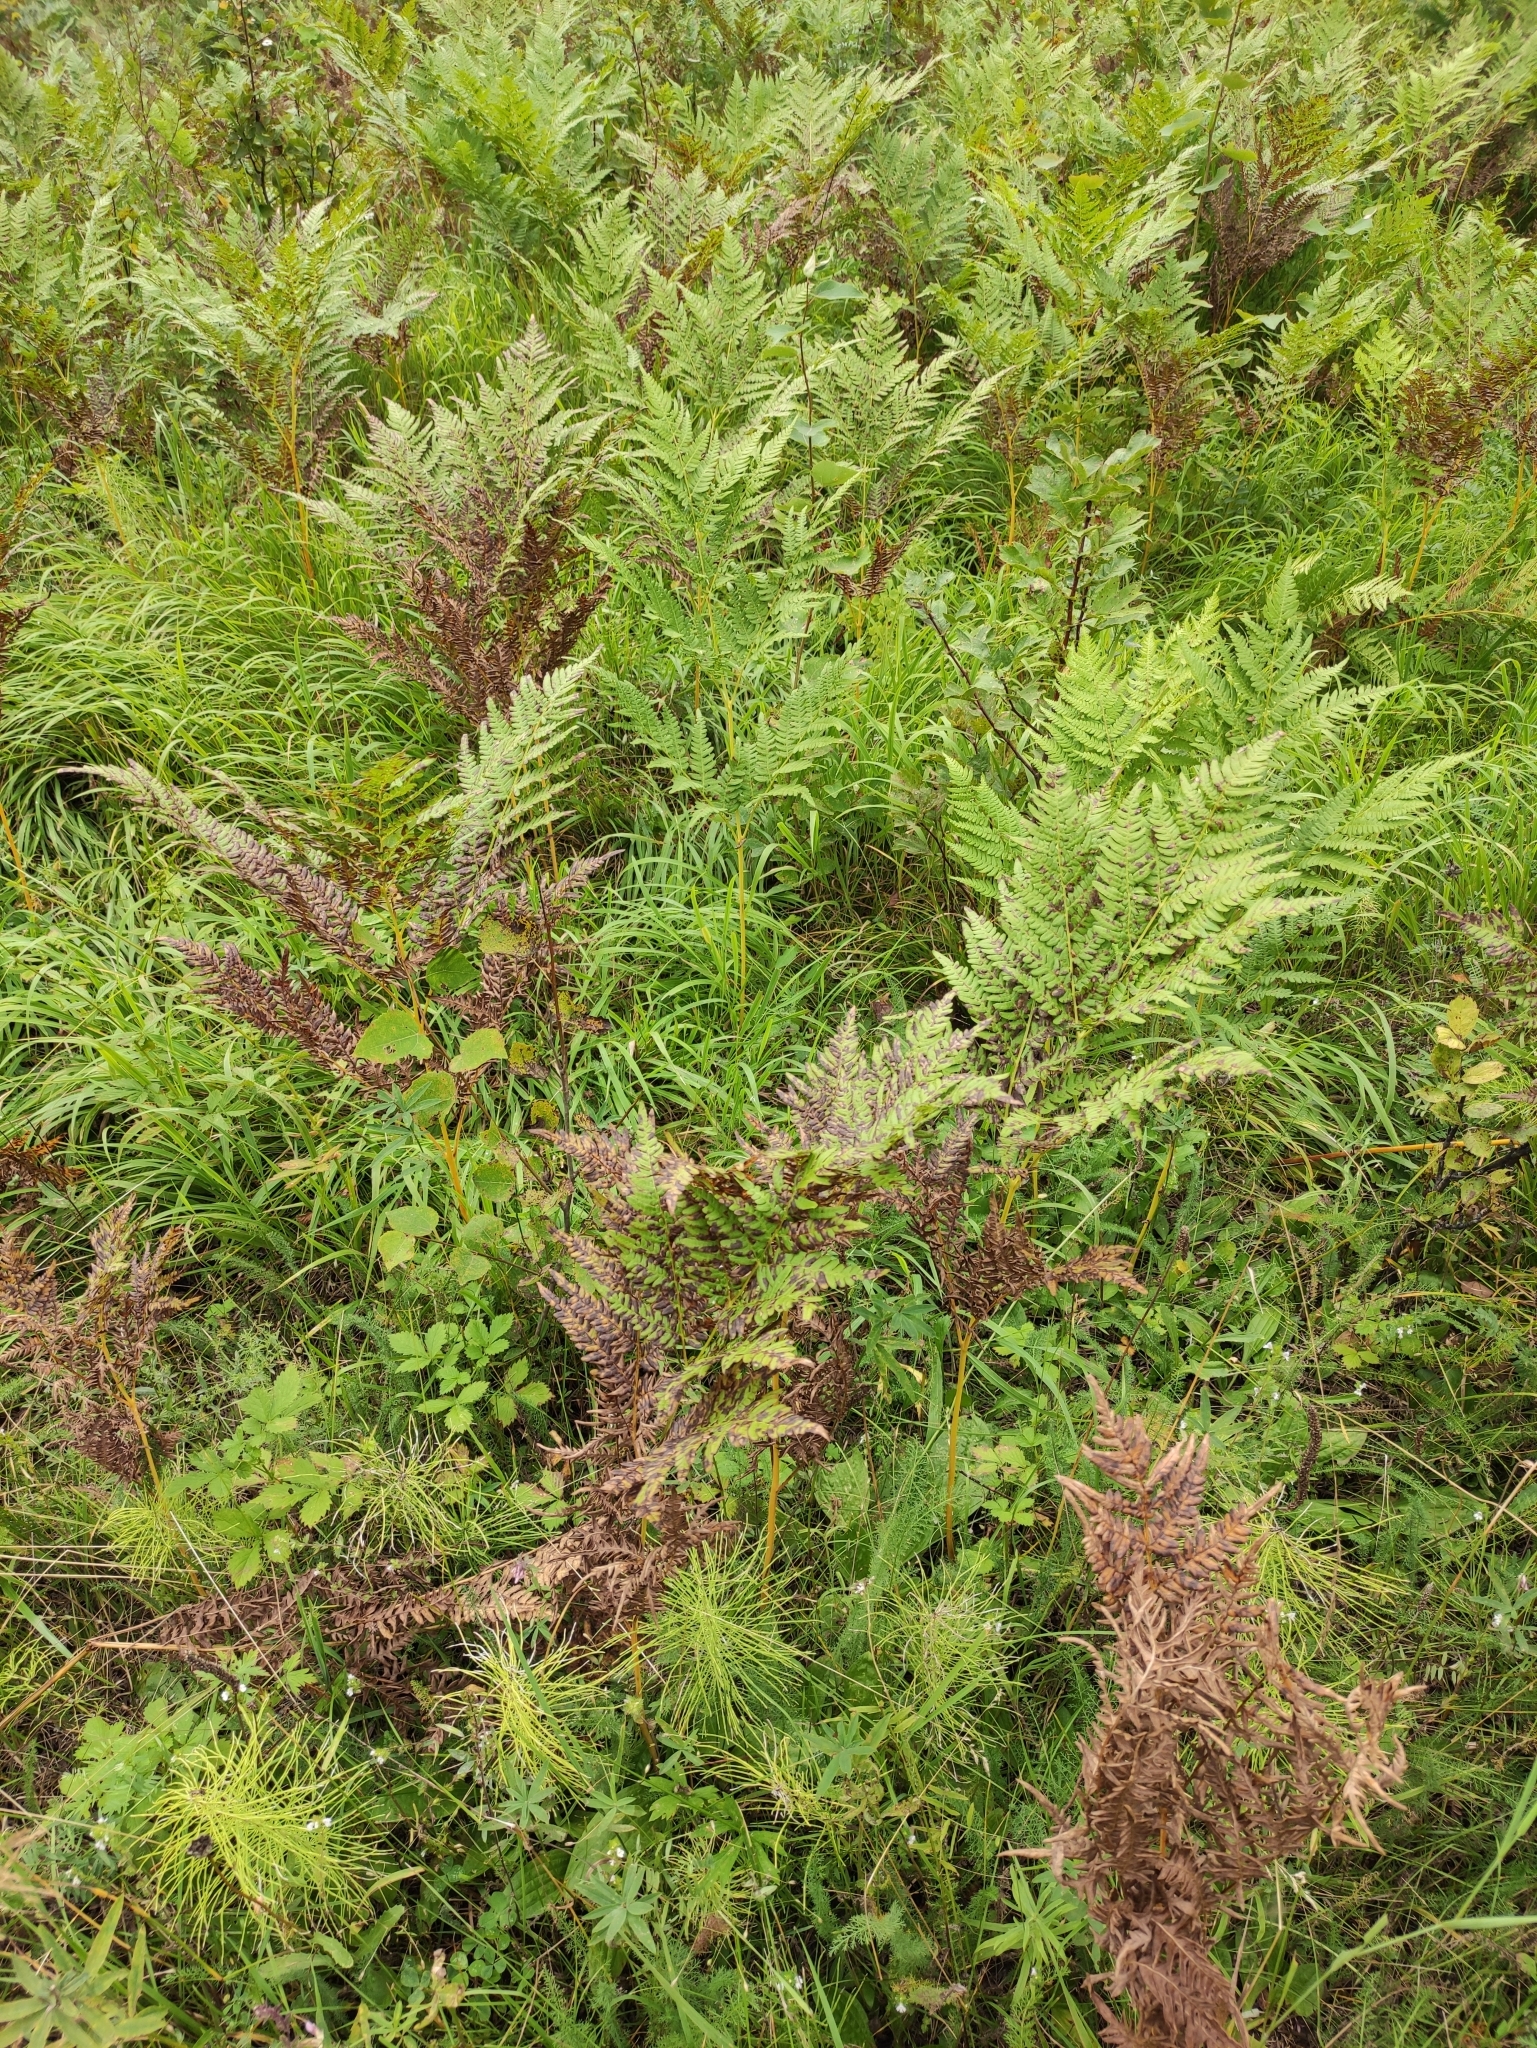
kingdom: Plantae
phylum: Tracheophyta
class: Polypodiopsida
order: Polypodiales
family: Dennstaedtiaceae
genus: Pteridium
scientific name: Pteridium aquilinum
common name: Bracken
